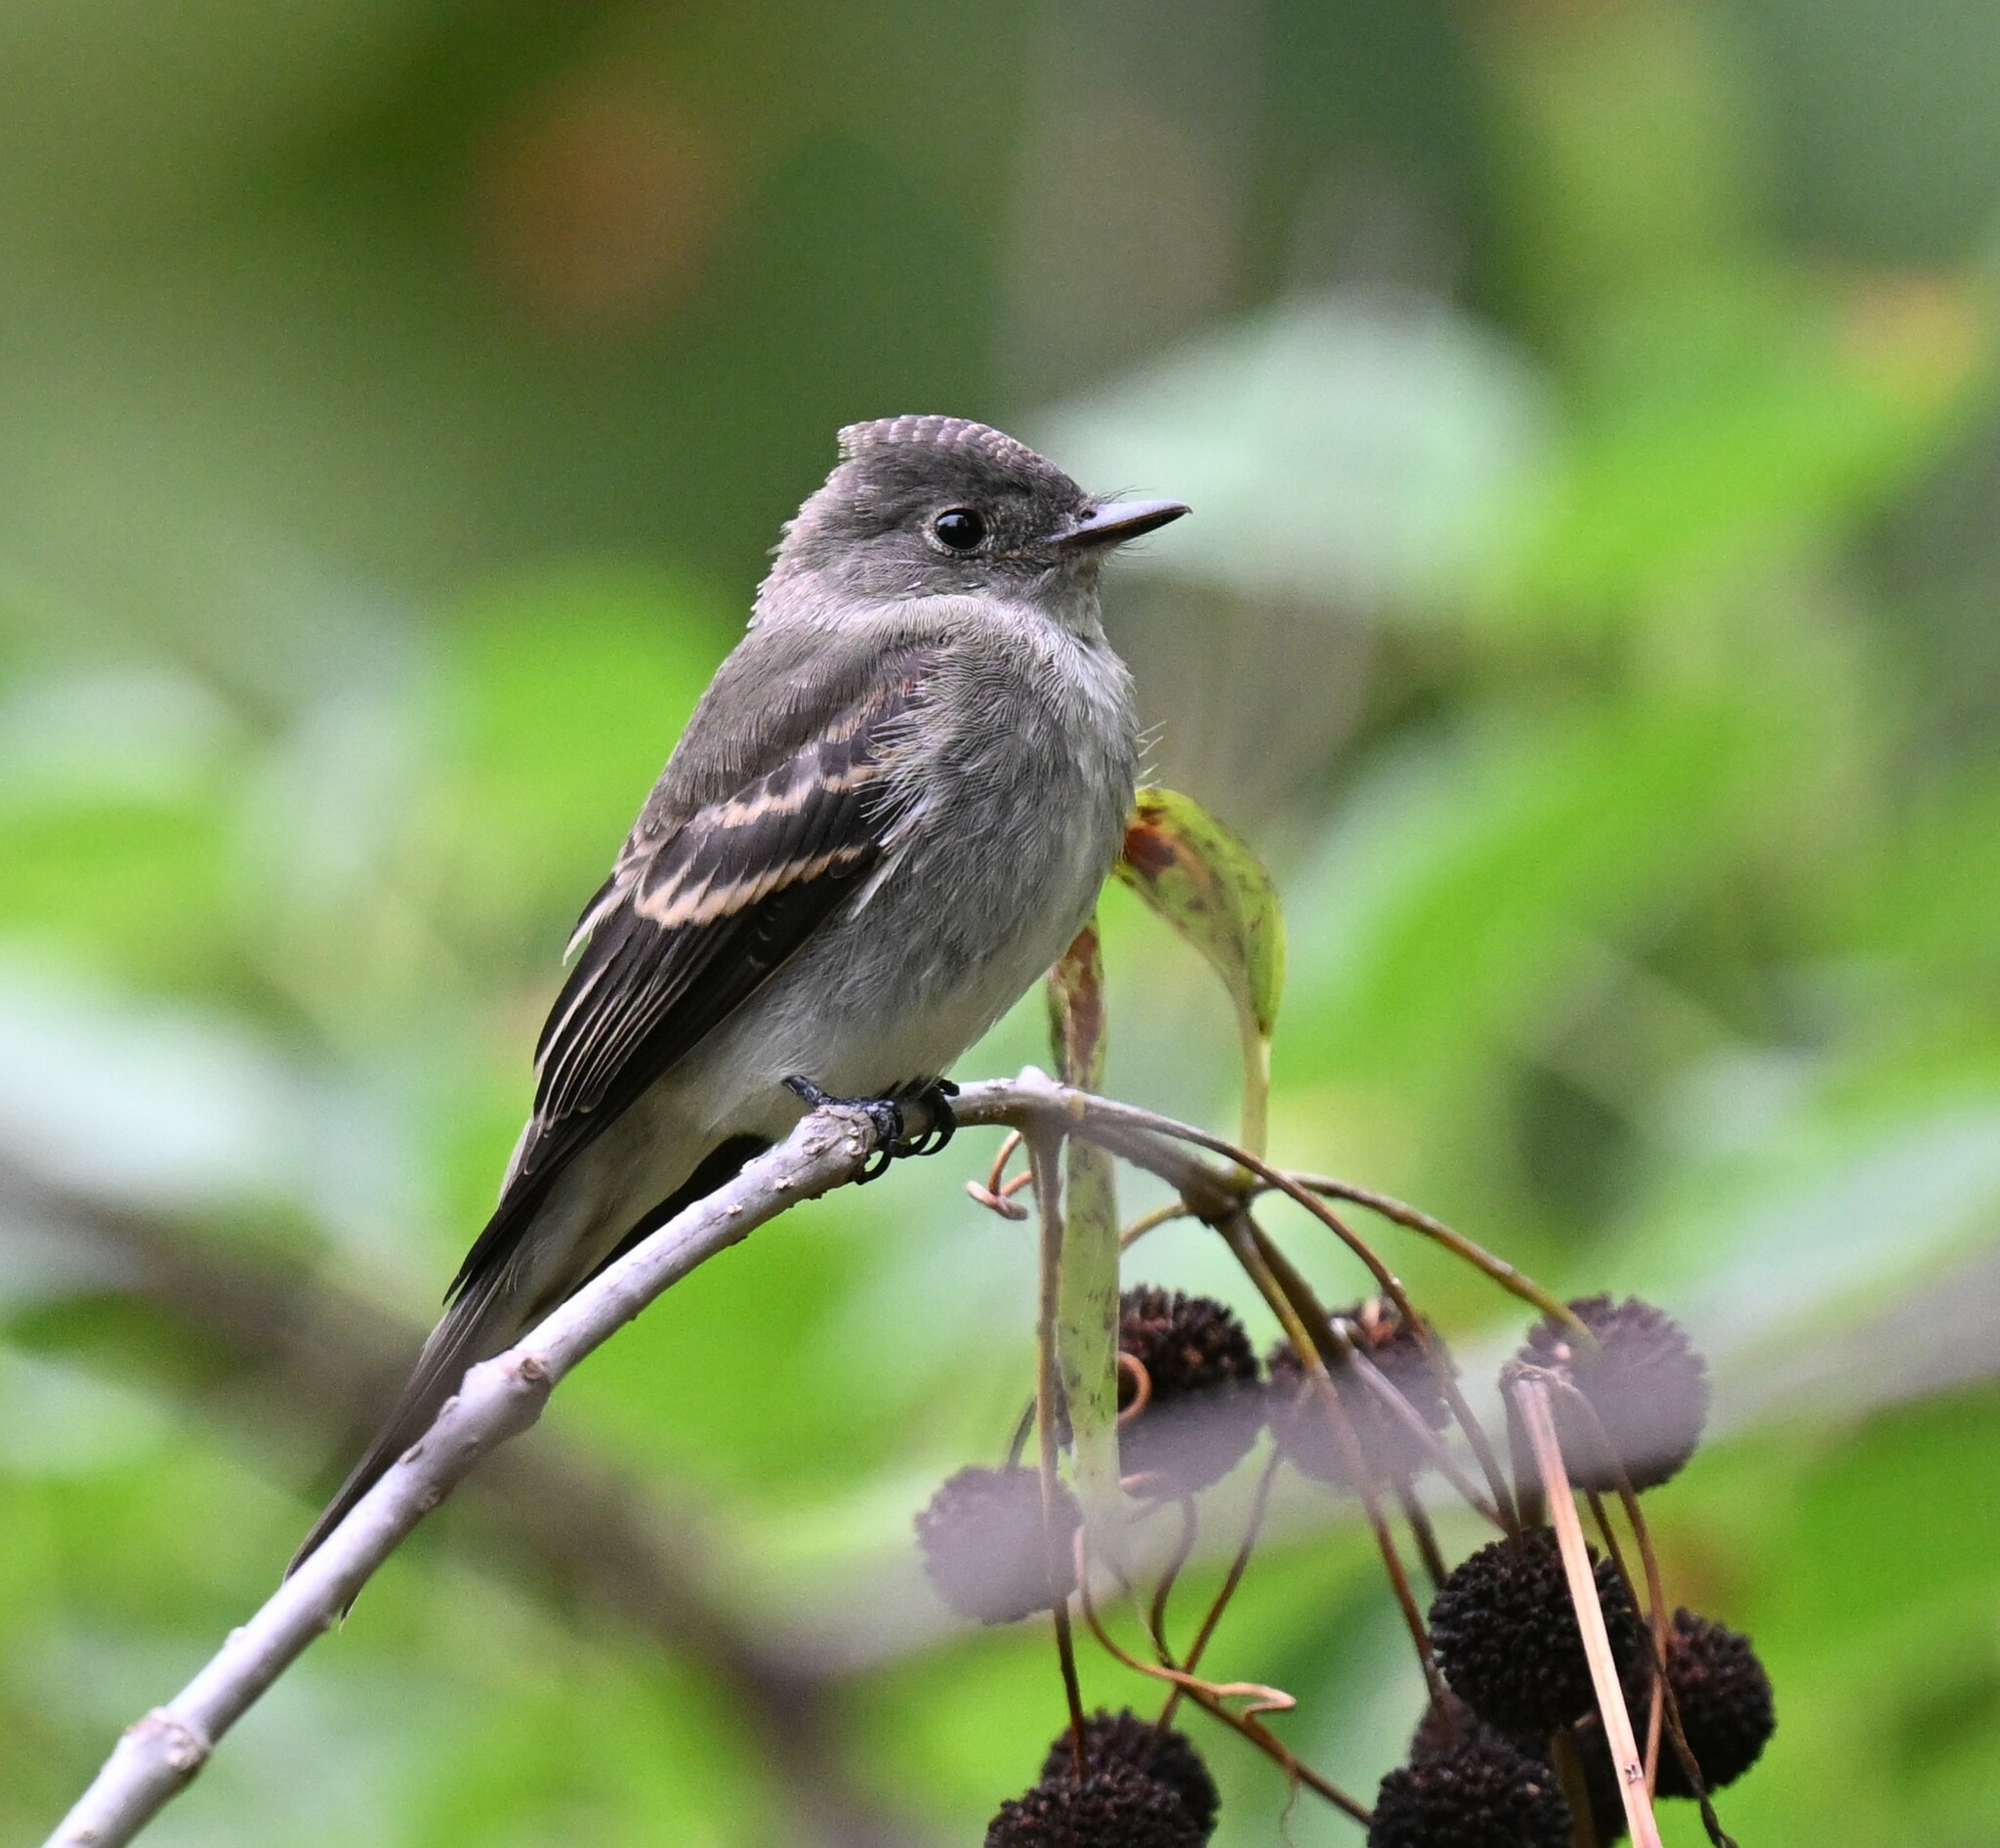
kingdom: Animalia
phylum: Chordata
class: Aves
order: Passeriformes
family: Tyrannidae
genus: Contopus
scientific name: Contopus virens
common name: Eastern wood-pewee
